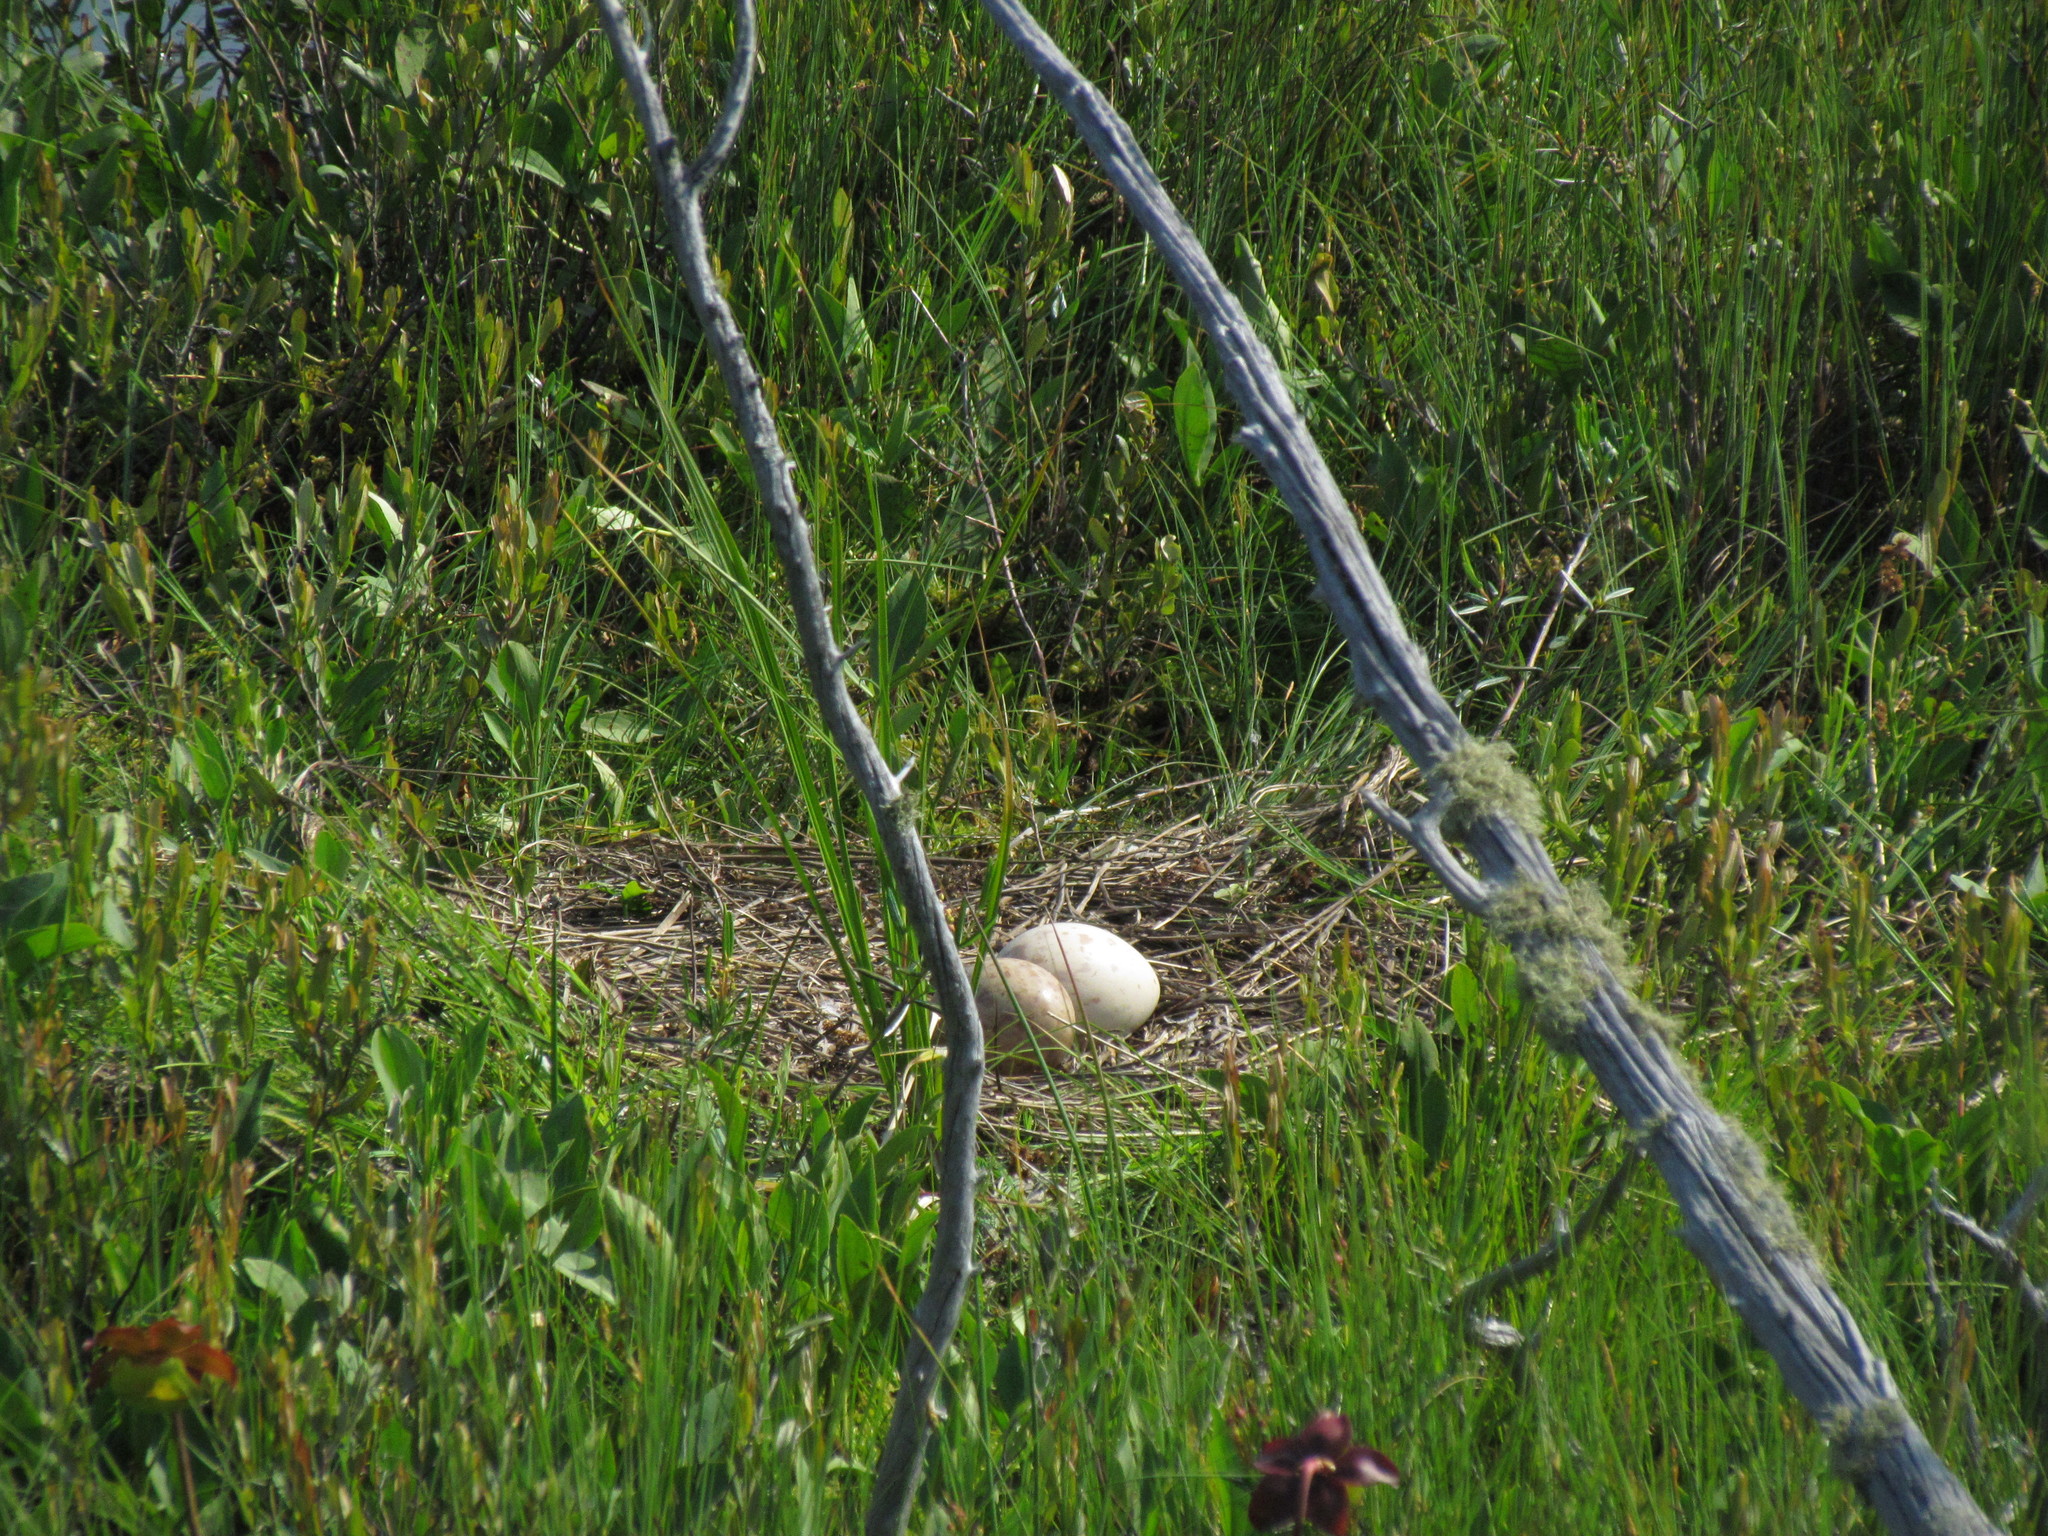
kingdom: Animalia
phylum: Chordata
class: Aves
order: Gruiformes
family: Gruidae
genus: Grus
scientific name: Grus canadensis
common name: Sandhill crane
